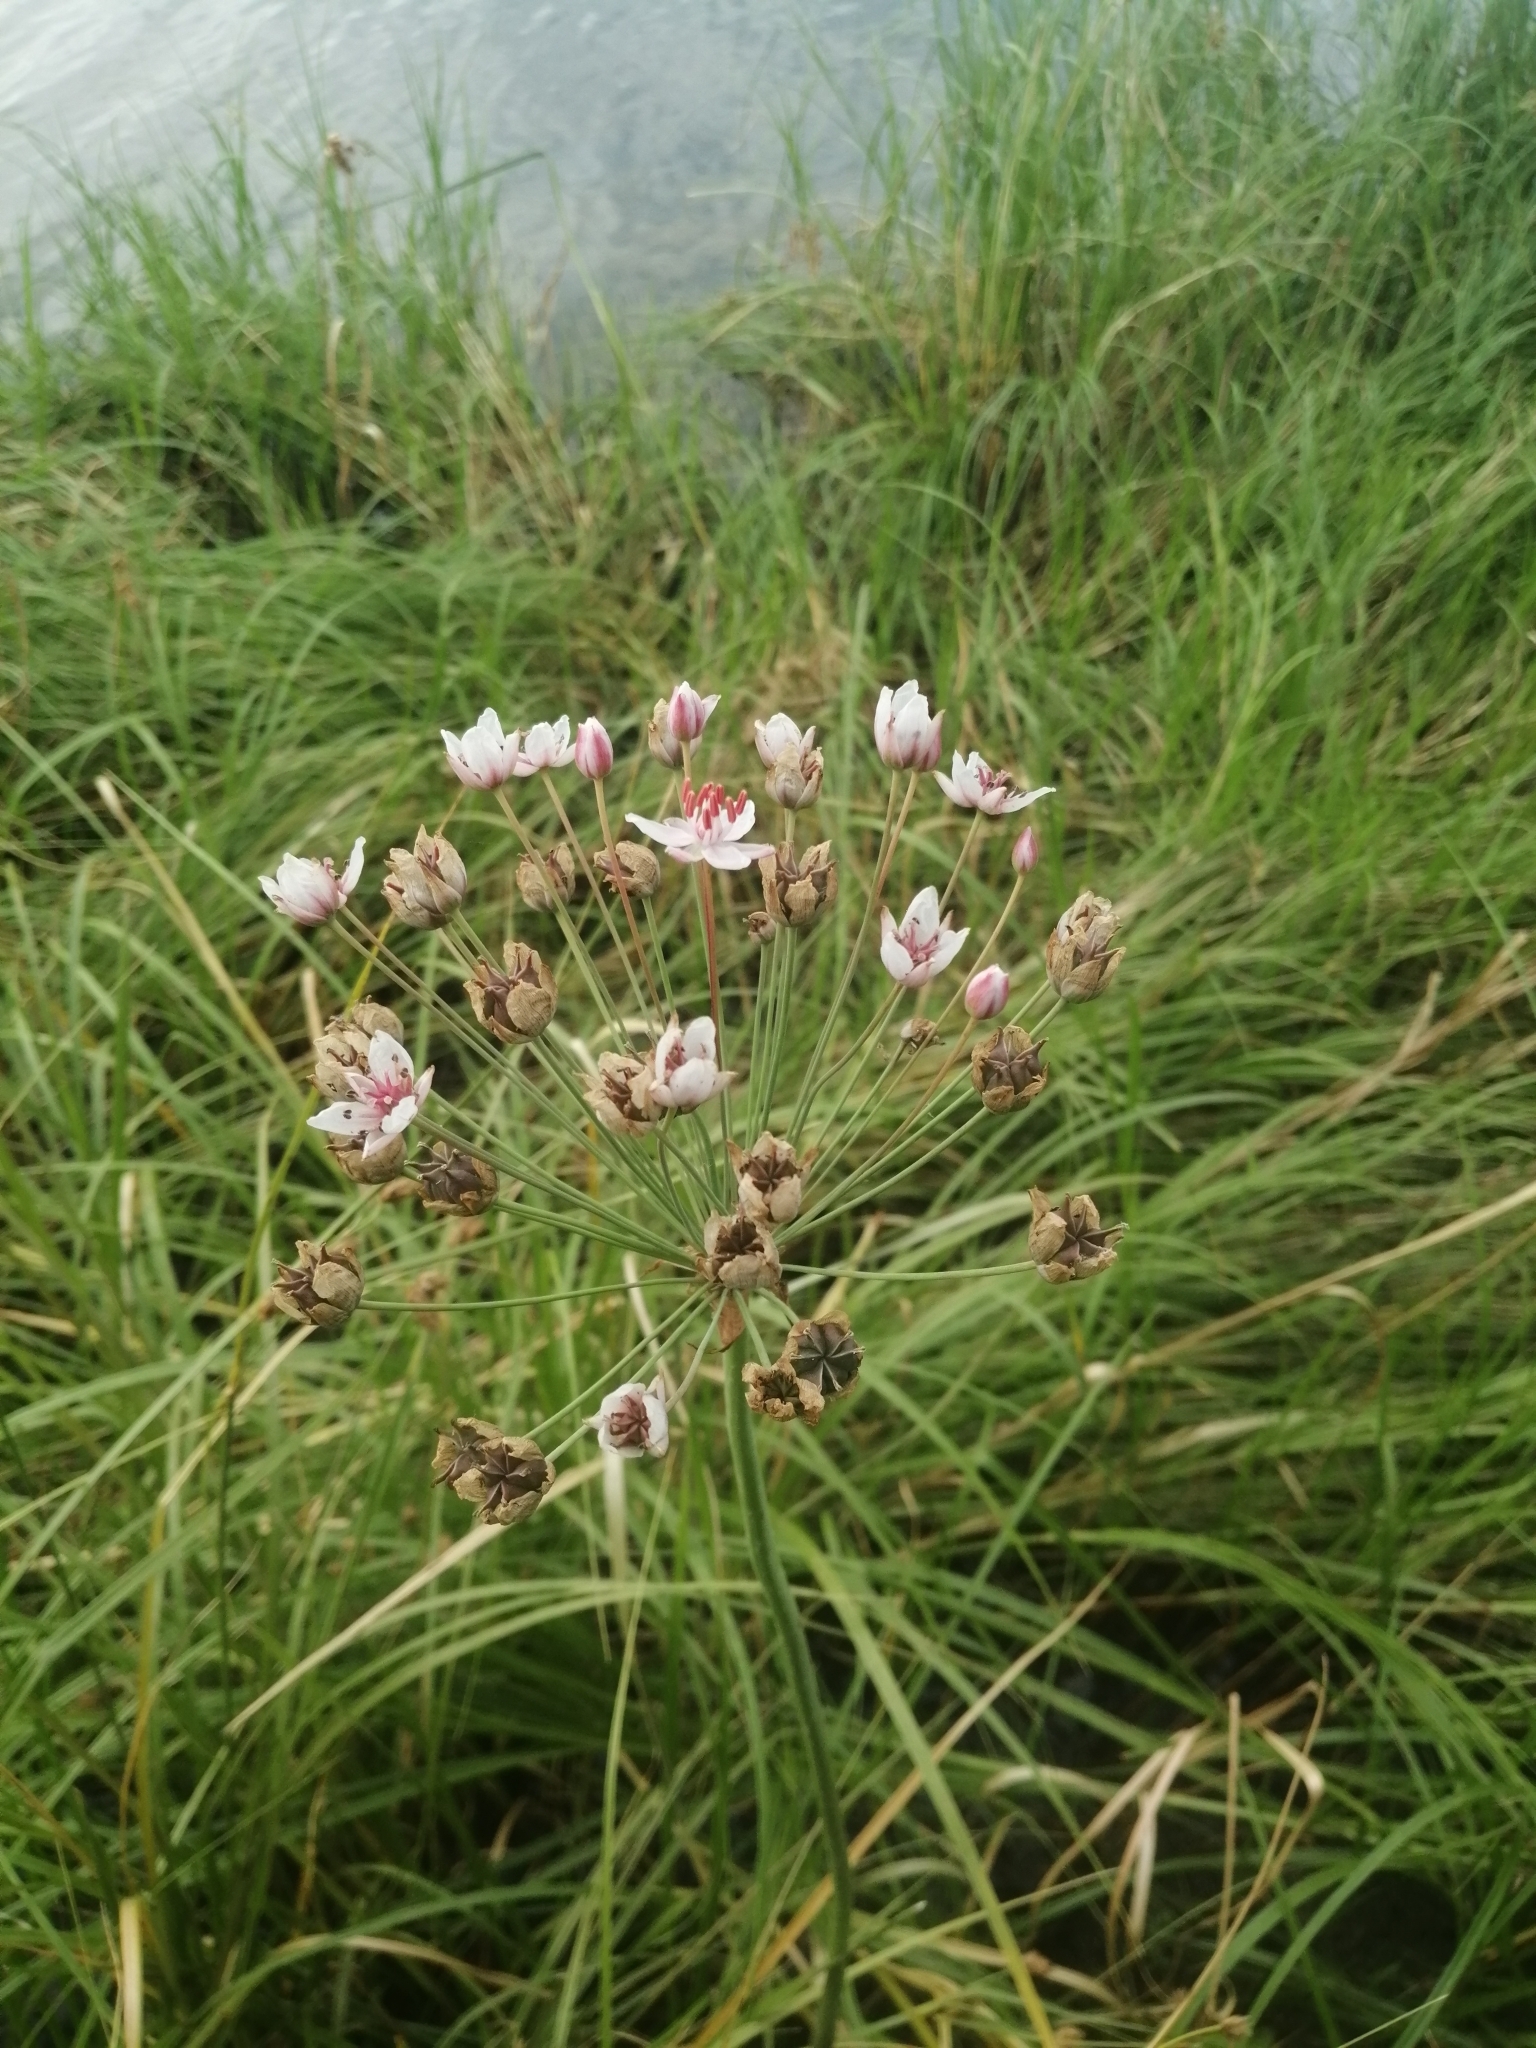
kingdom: Plantae
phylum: Tracheophyta
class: Liliopsida
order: Alismatales
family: Butomaceae
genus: Butomus
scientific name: Butomus umbellatus
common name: Flowering-rush
